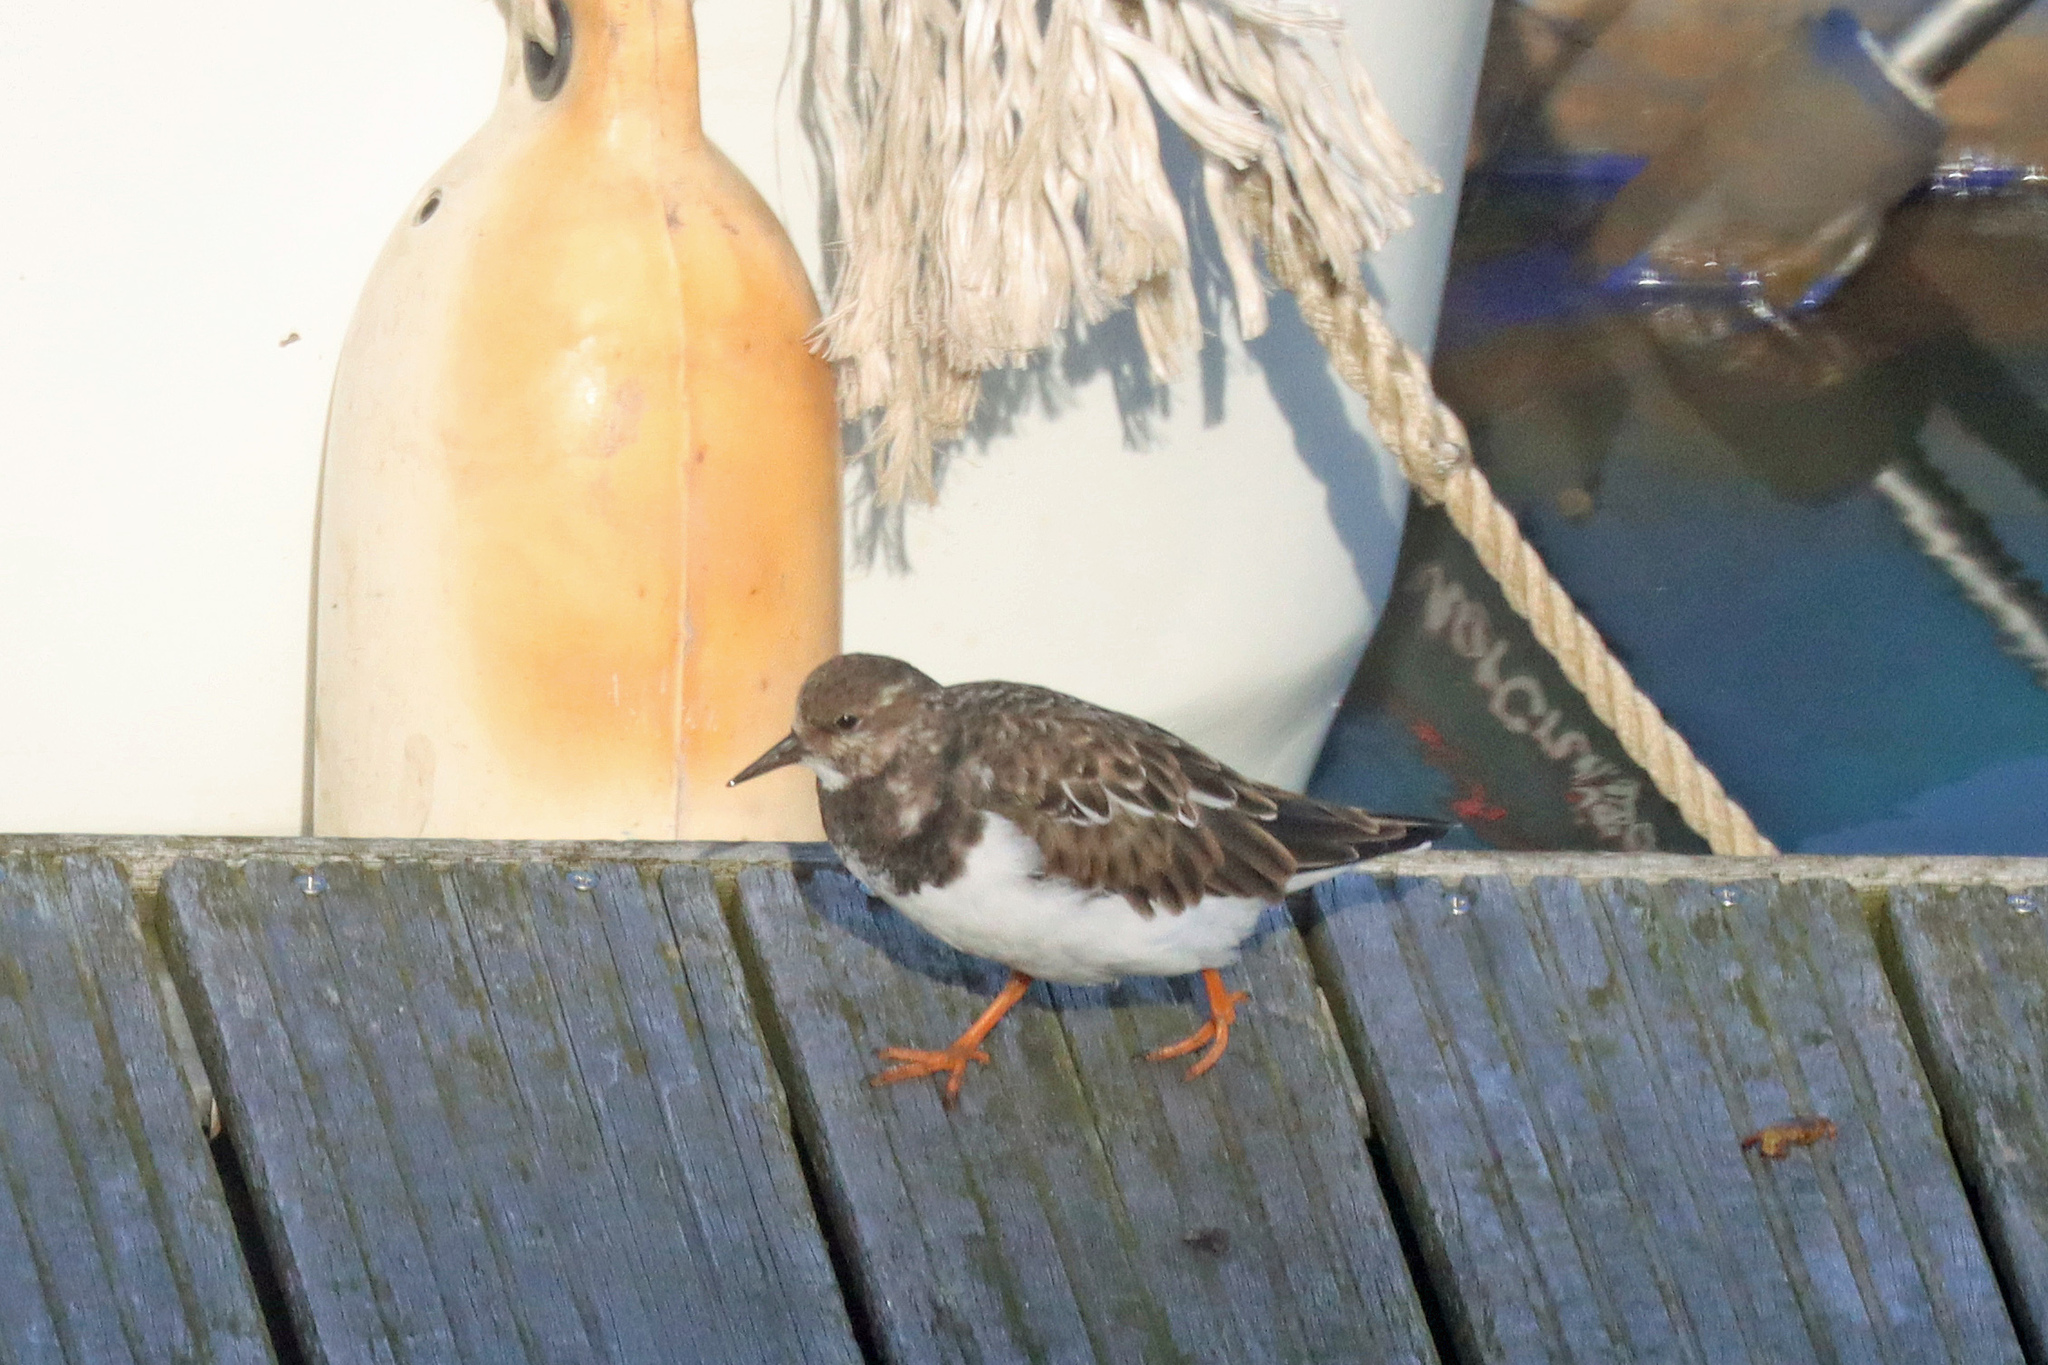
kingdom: Animalia
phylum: Chordata
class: Aves
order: Charadriiformes
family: Scolopacidae
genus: Arenaria
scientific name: Arenaria interpres
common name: Ruddy turnstone
